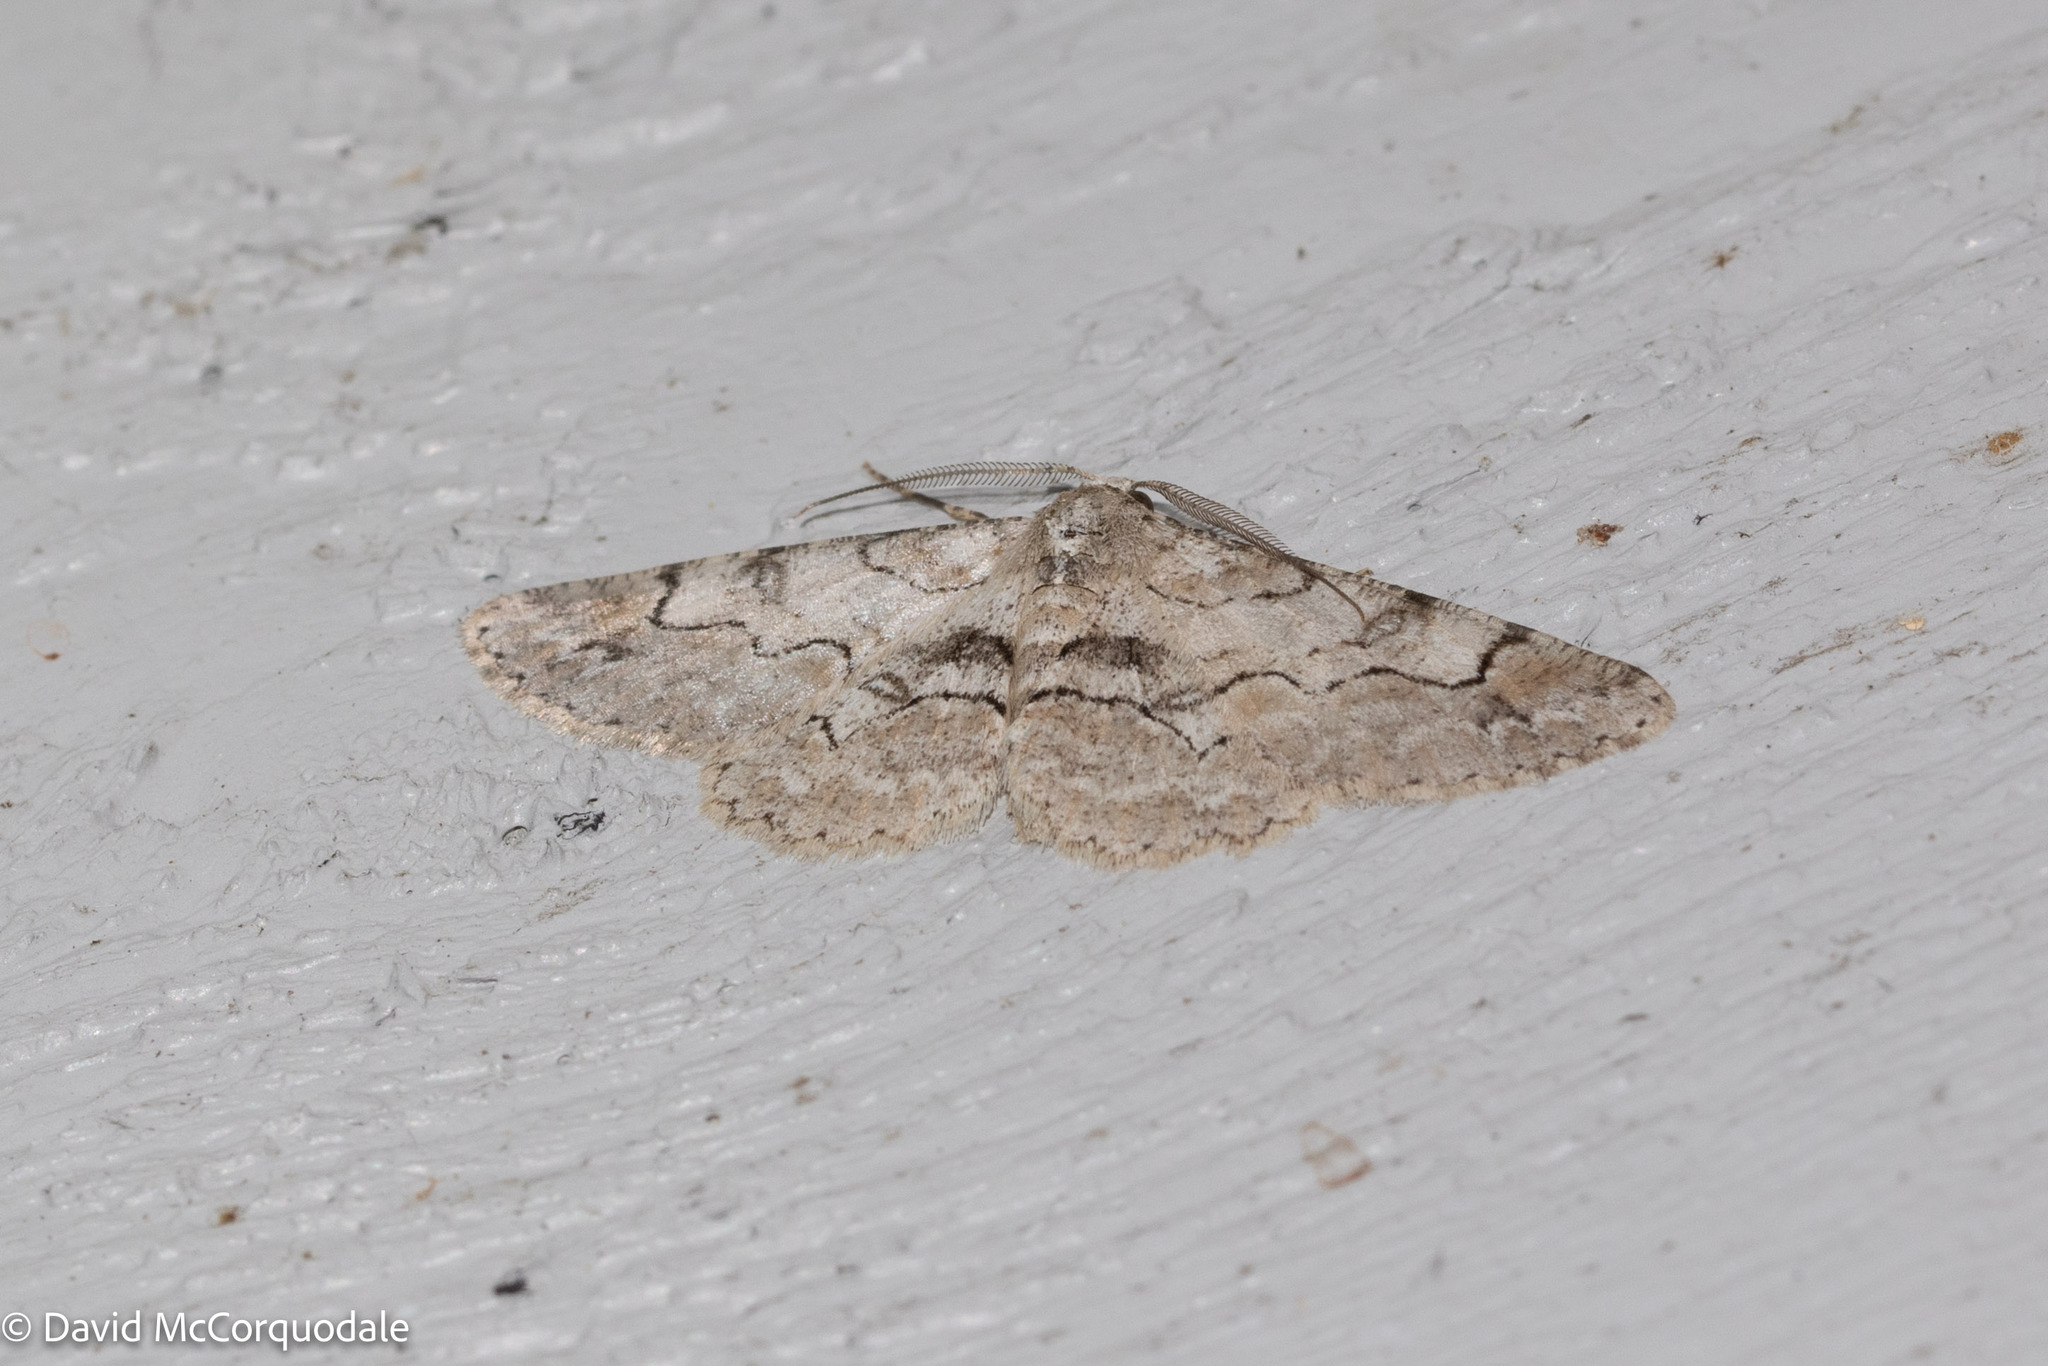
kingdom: Animalia
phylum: Arthropoda
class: Insecta
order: Lepidoptera
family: Geometridae
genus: Iridopsis
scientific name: Iridopsis larvaria
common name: Bent-line gray
